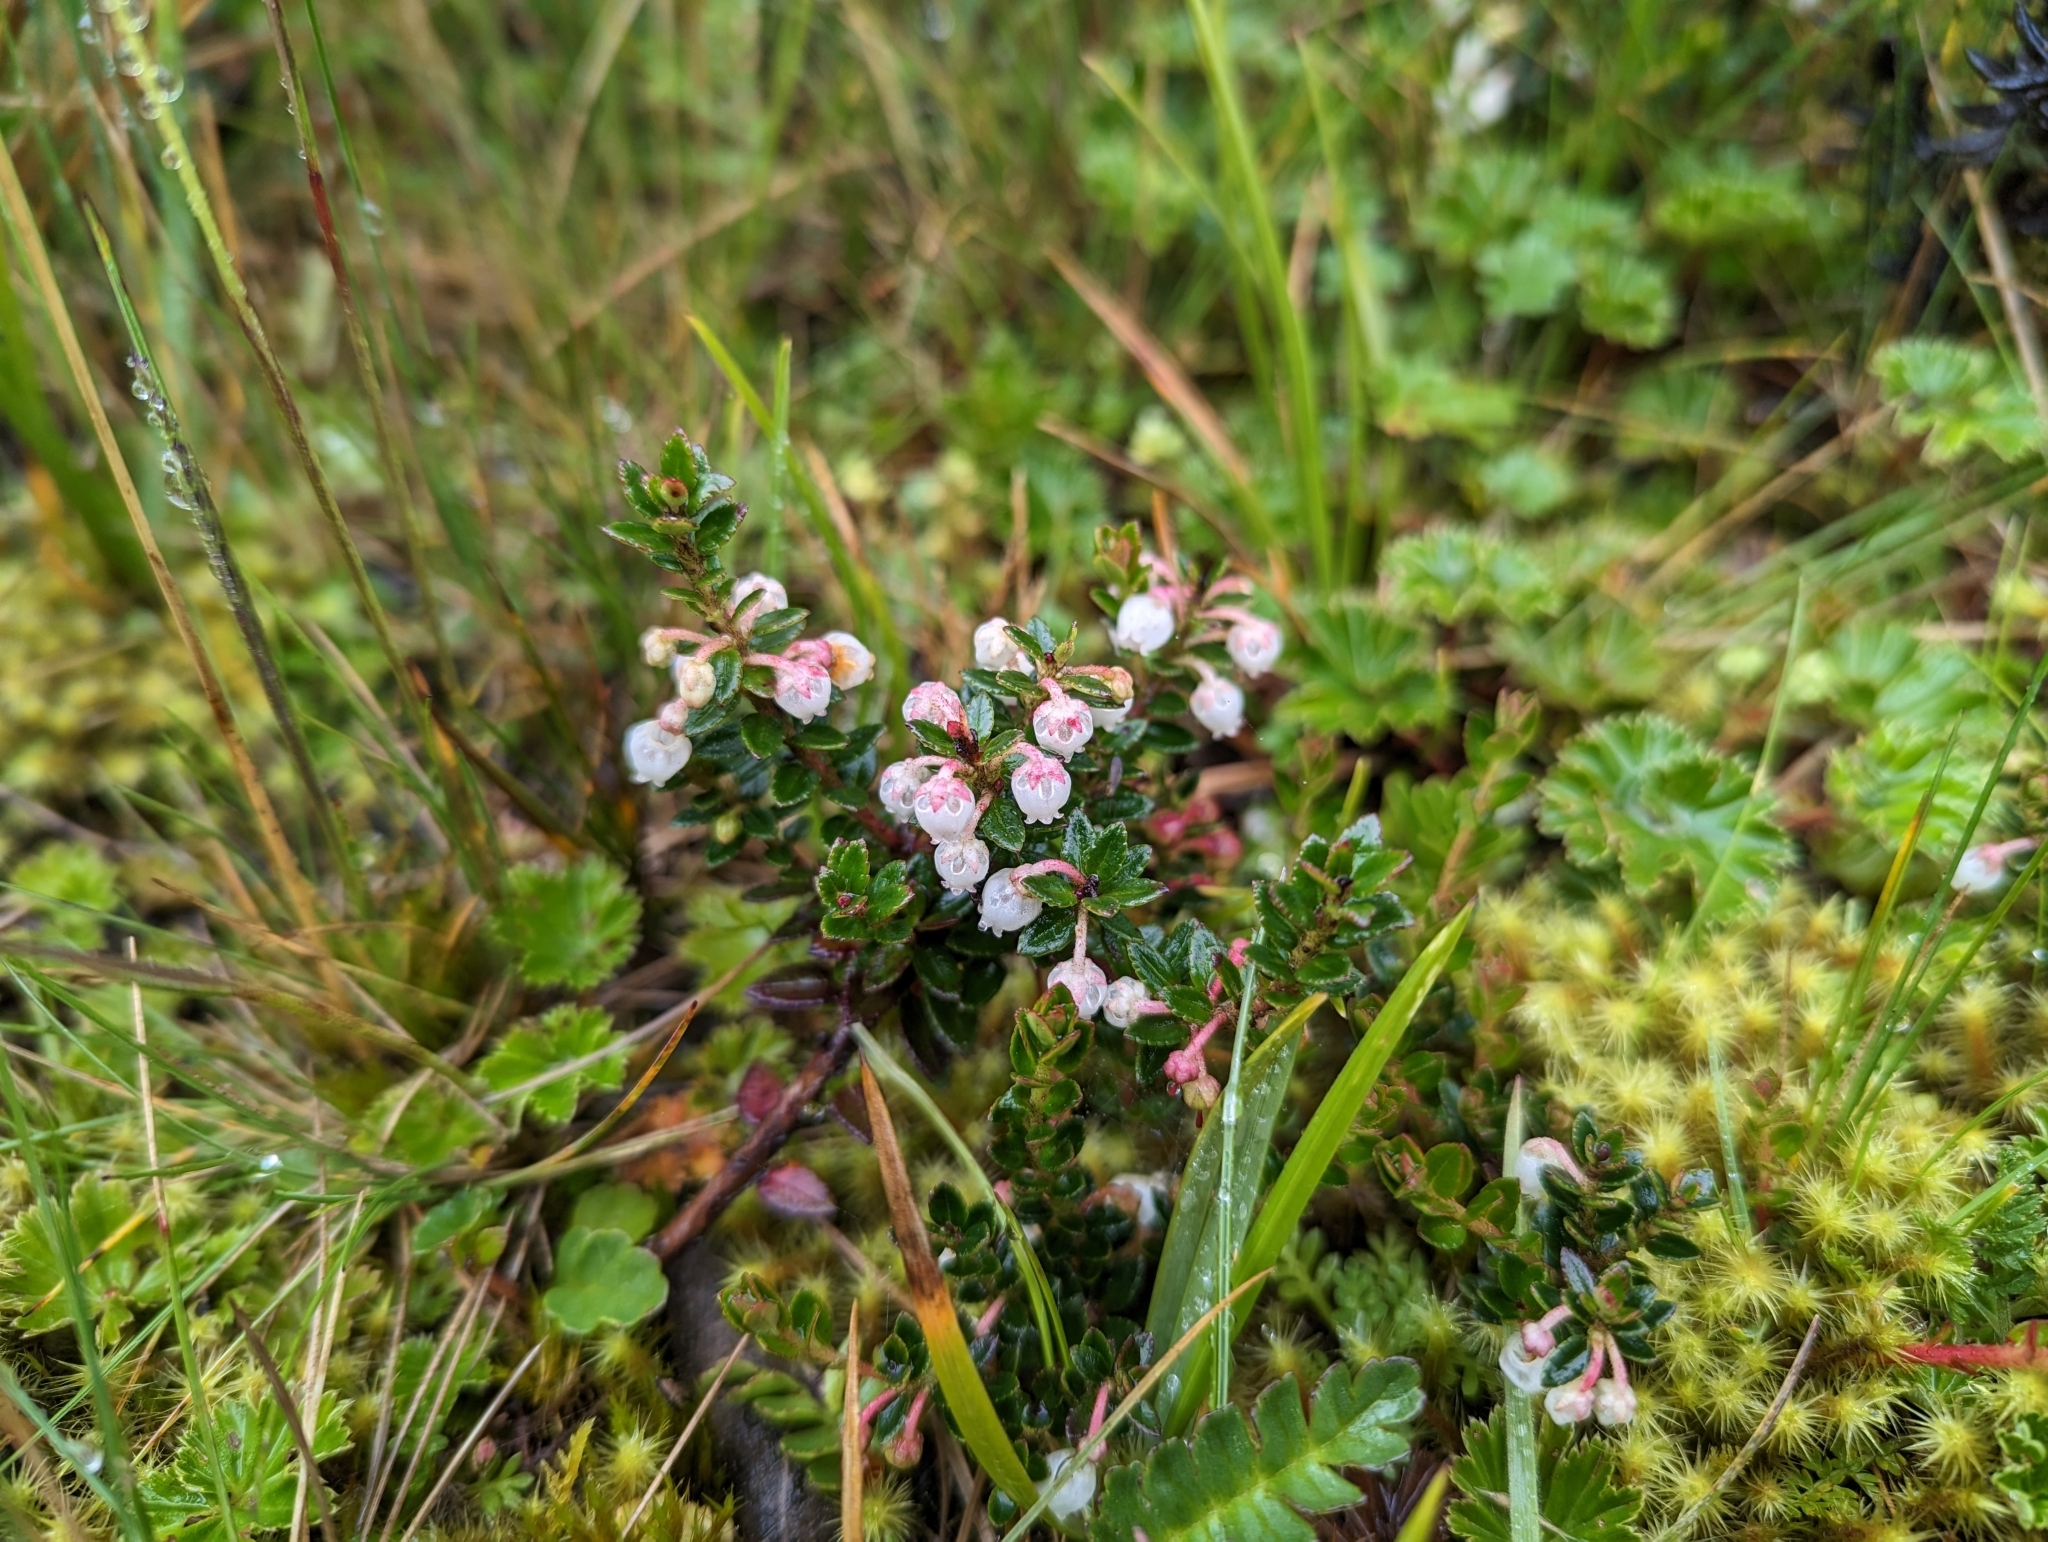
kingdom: Plantae
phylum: Tracheophyta
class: Magnoliopsida
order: Ericales
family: Ericaceae
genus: Gaultheria
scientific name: Gaultheria myrsinoides
